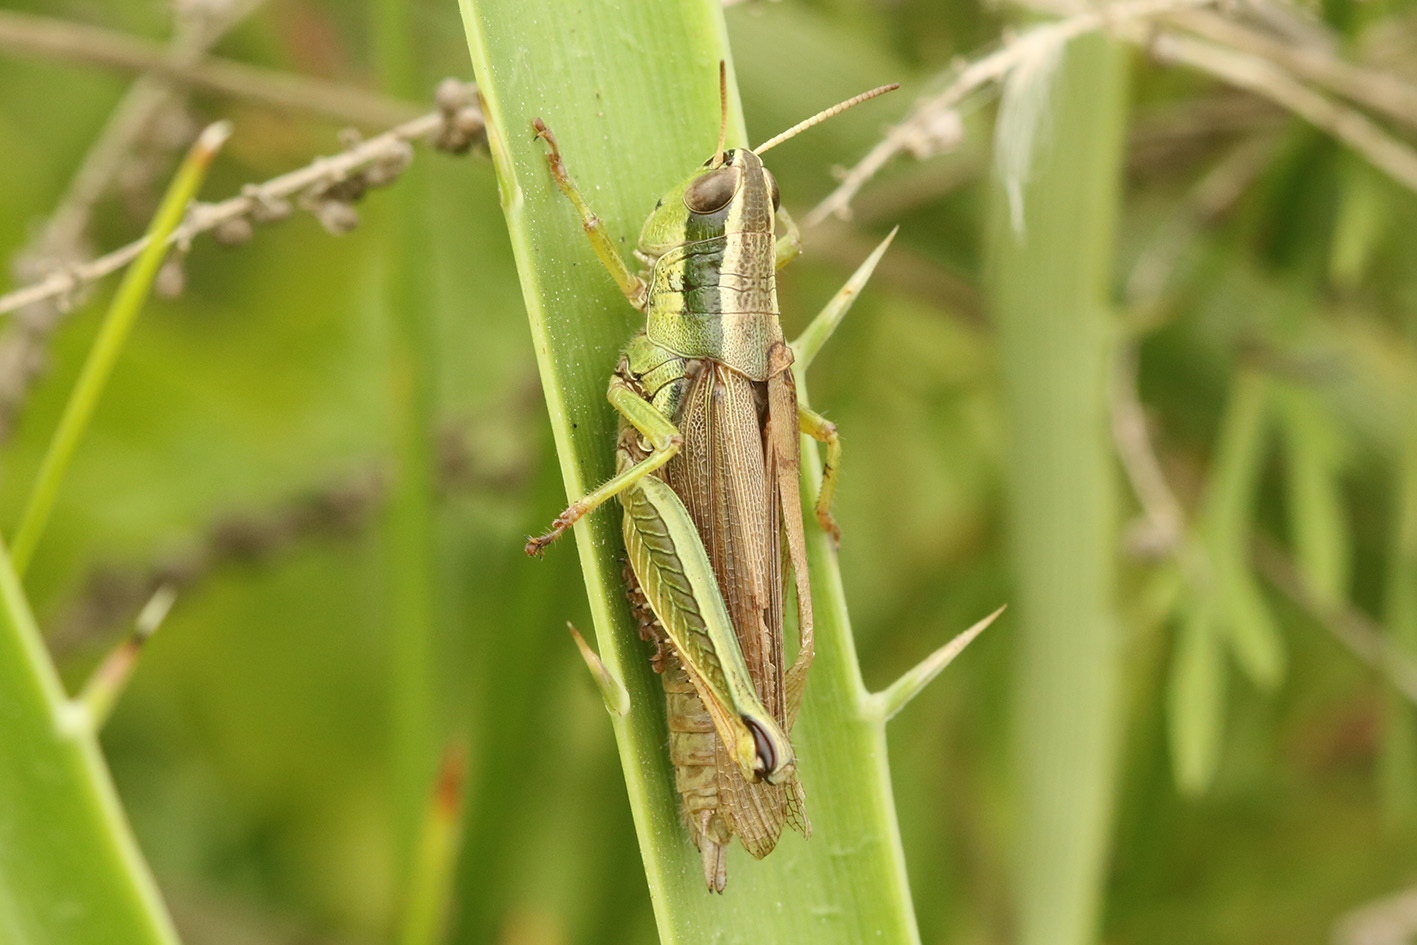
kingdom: Animalia
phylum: Arthropoda
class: Insecta
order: Orthoptera
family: Acrididae
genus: Scotussa
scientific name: Scotussa cliens
